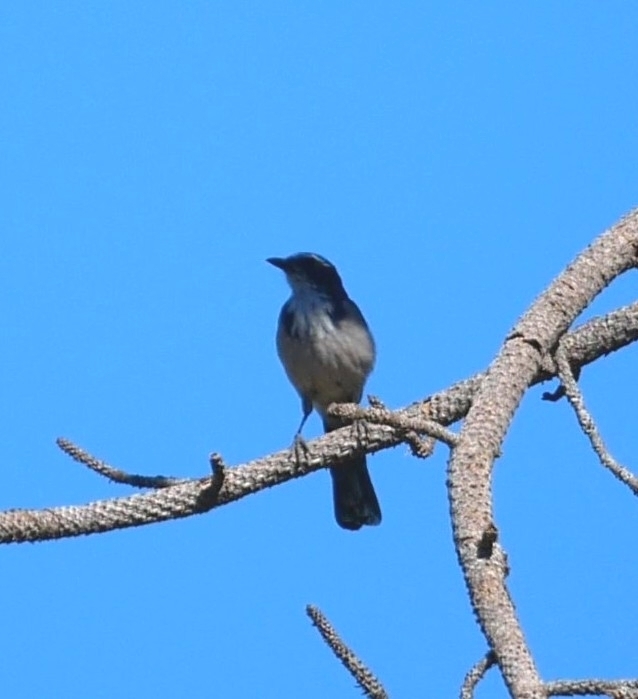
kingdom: Animalia
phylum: Chordata
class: Aves
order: Passeriformes
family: Corvidae
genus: Aphelocoma
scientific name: Aphelocoma californica
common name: California scrub-jay
